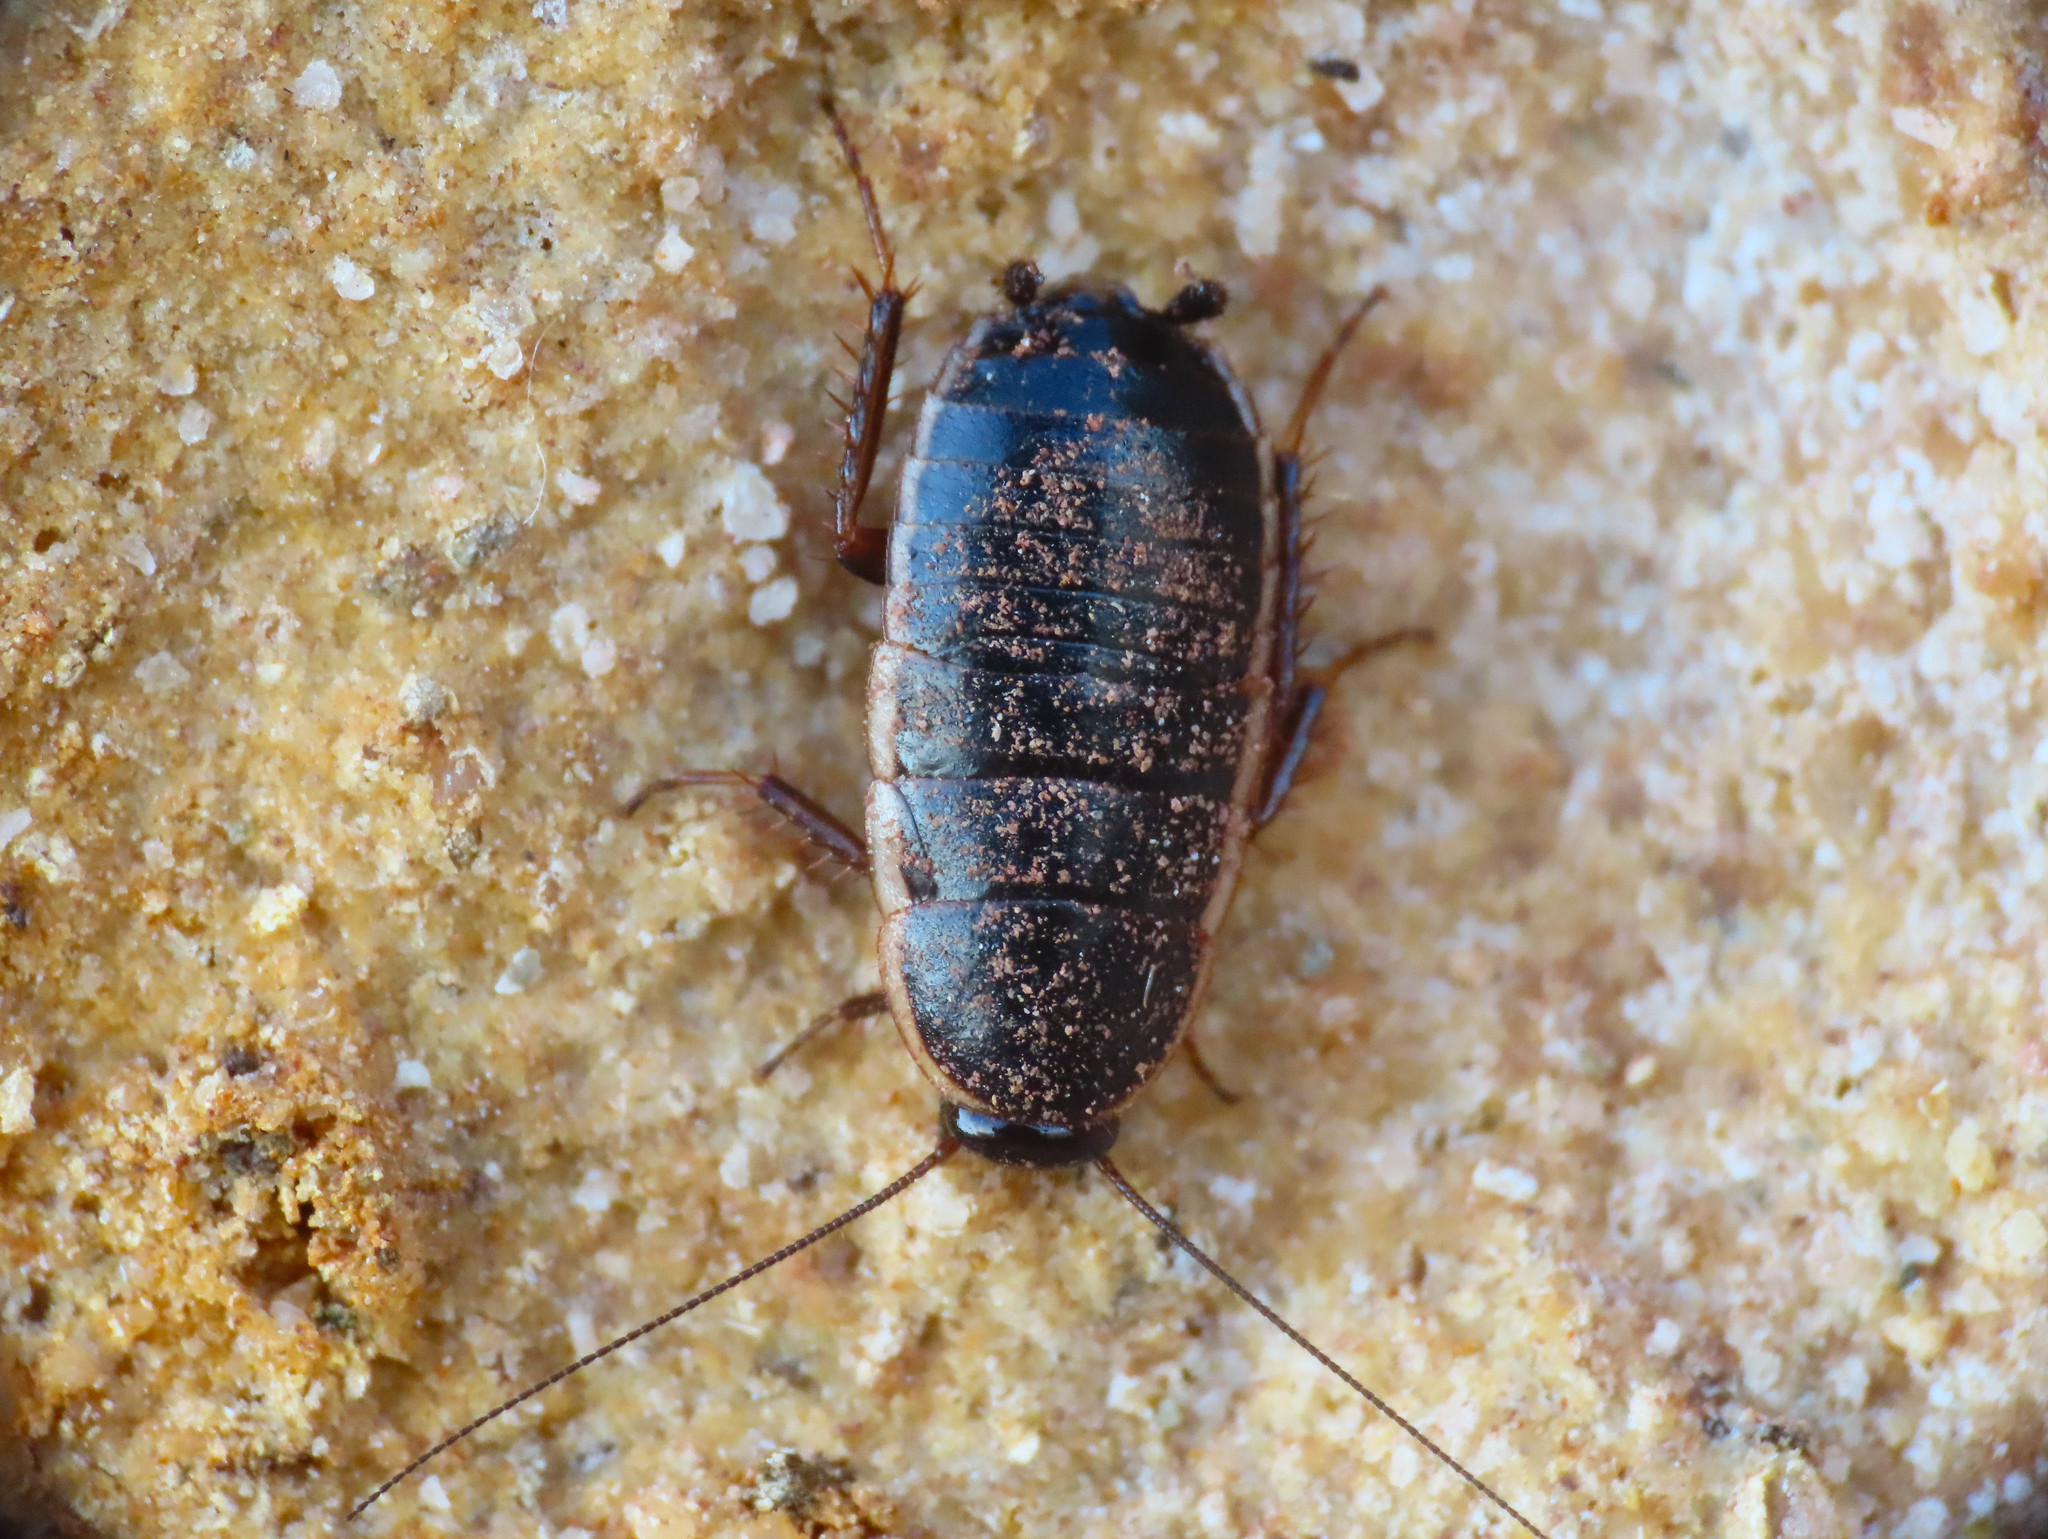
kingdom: Animalia
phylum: Arthropoda
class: Insecta
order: Blattodea
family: Ectobiidae
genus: Loboptera
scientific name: Loboptera decipiens
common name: Lobe-winged cockroach
